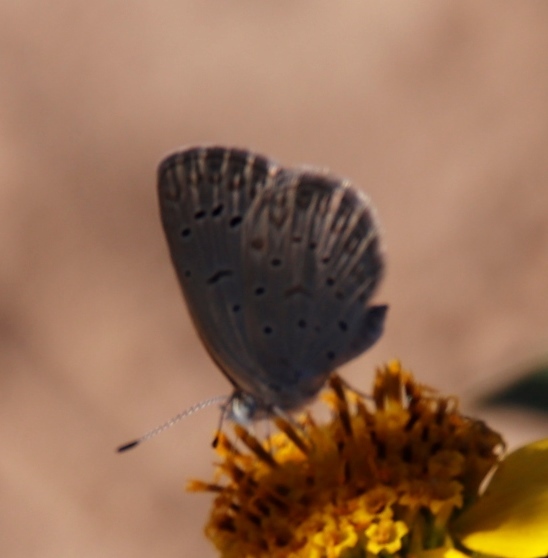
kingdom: Animalia
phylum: Arthropoda
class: Insecta
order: Lepidoptera
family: Lycaenidae
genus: Zizeeria
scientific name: Zizeeria knysna
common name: African grass blue
